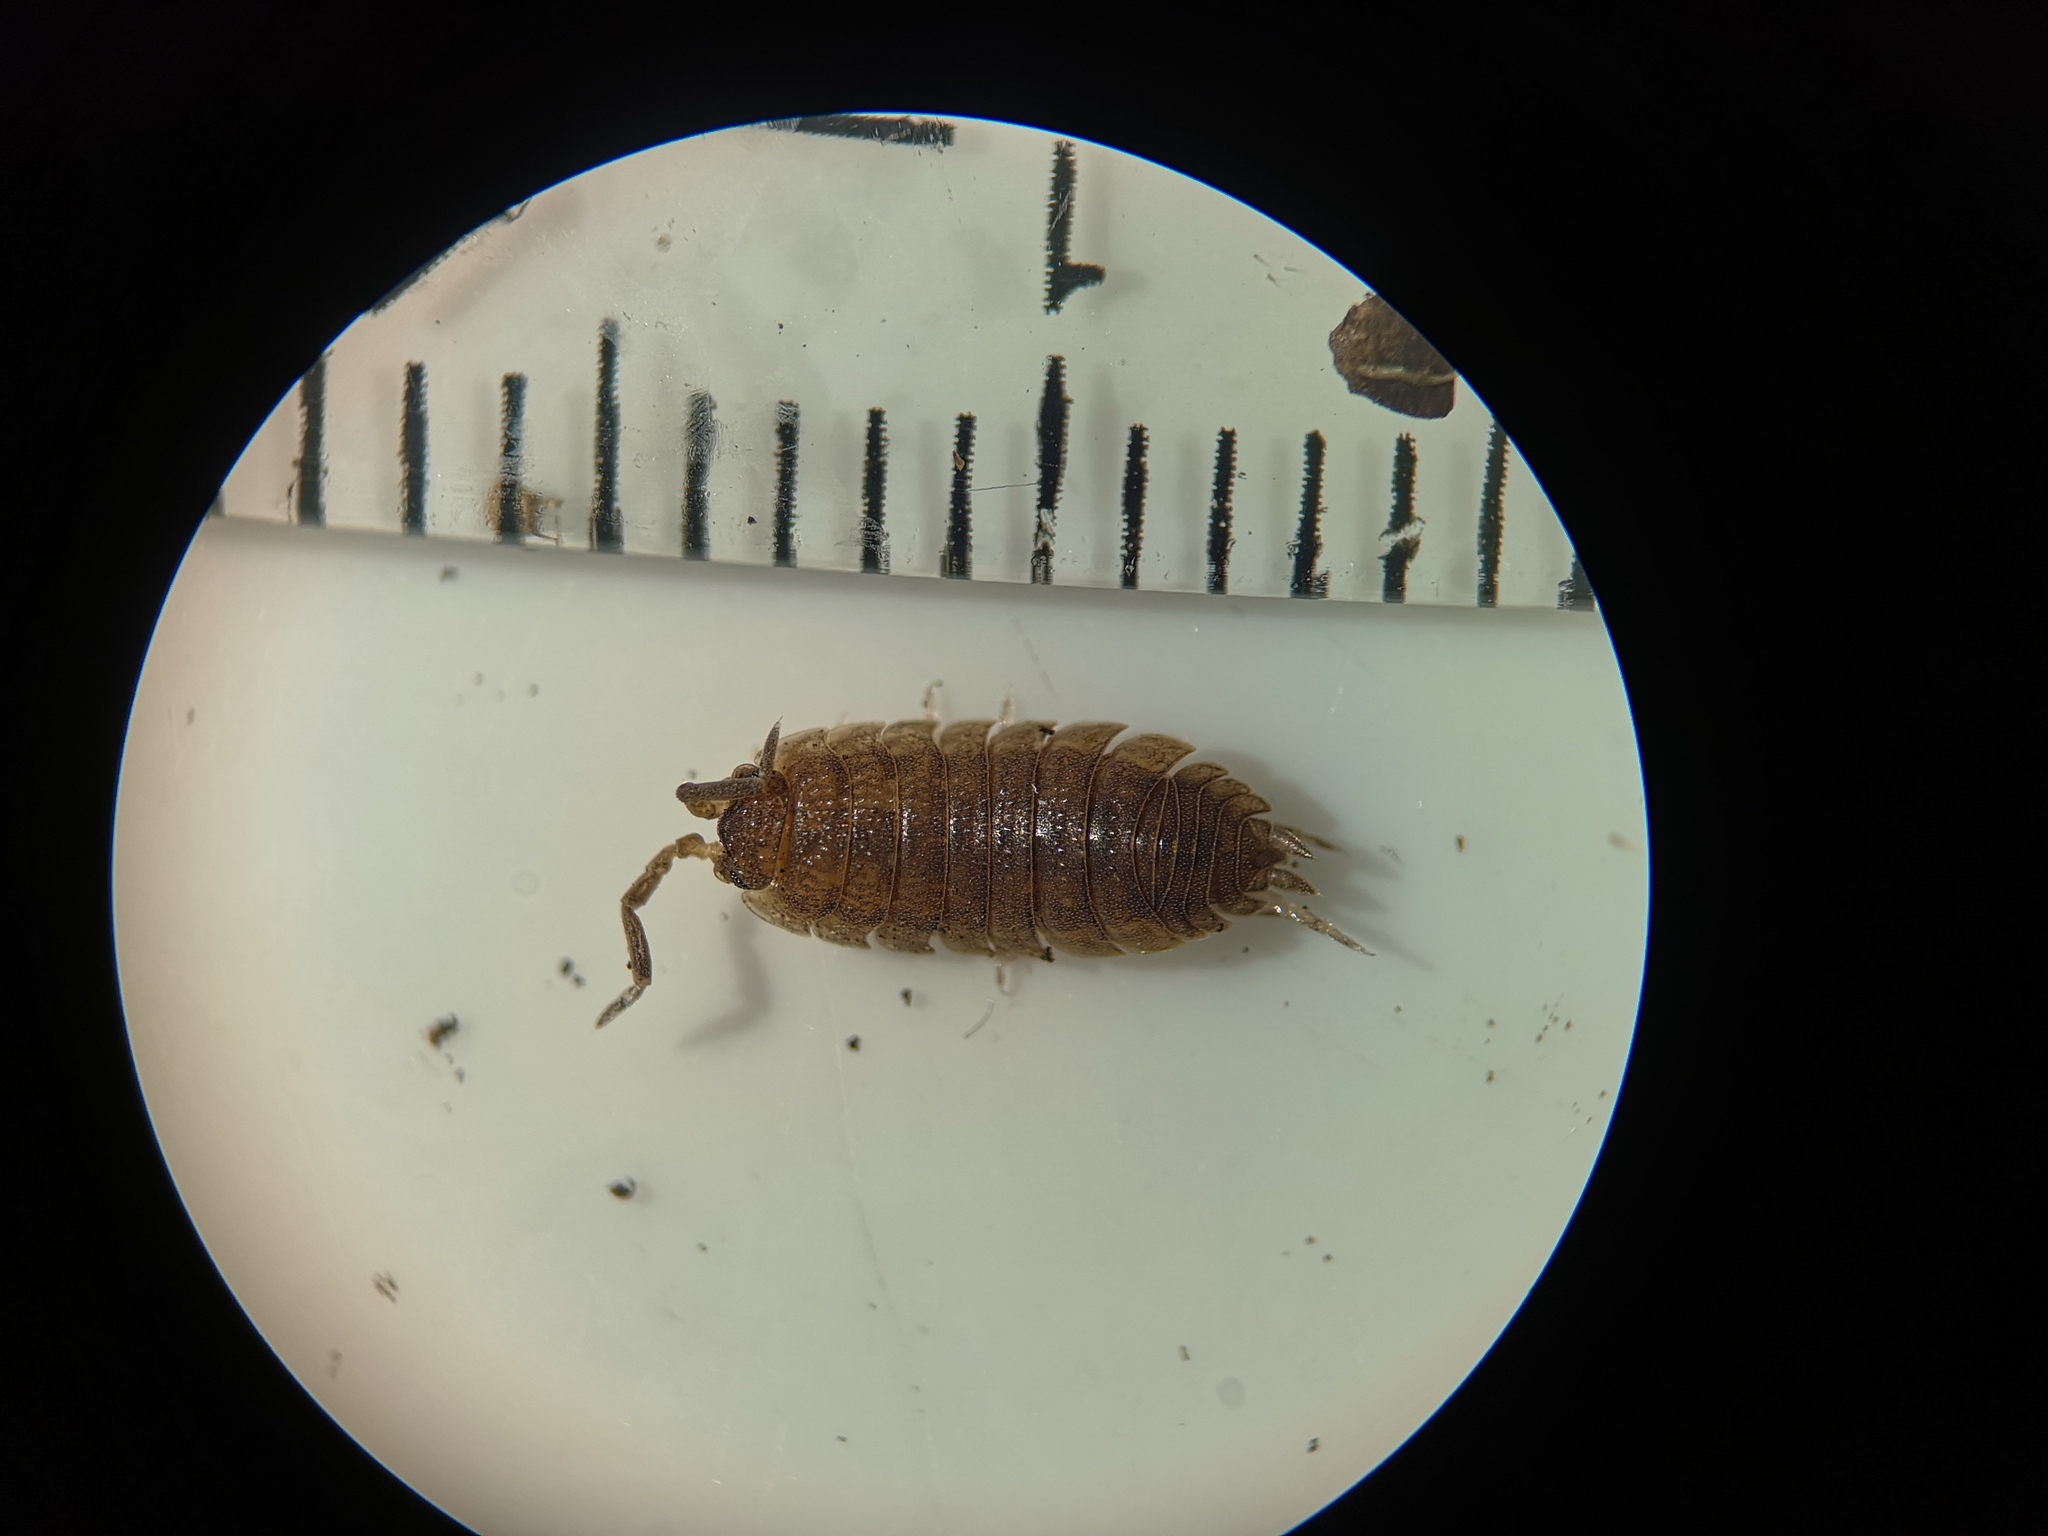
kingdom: Animalia
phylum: Arthropoda
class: Malacostraca
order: Isopoda
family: Porcellionidae
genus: Porcellio
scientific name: Porcellio scaber
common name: Common rough woodlouse
